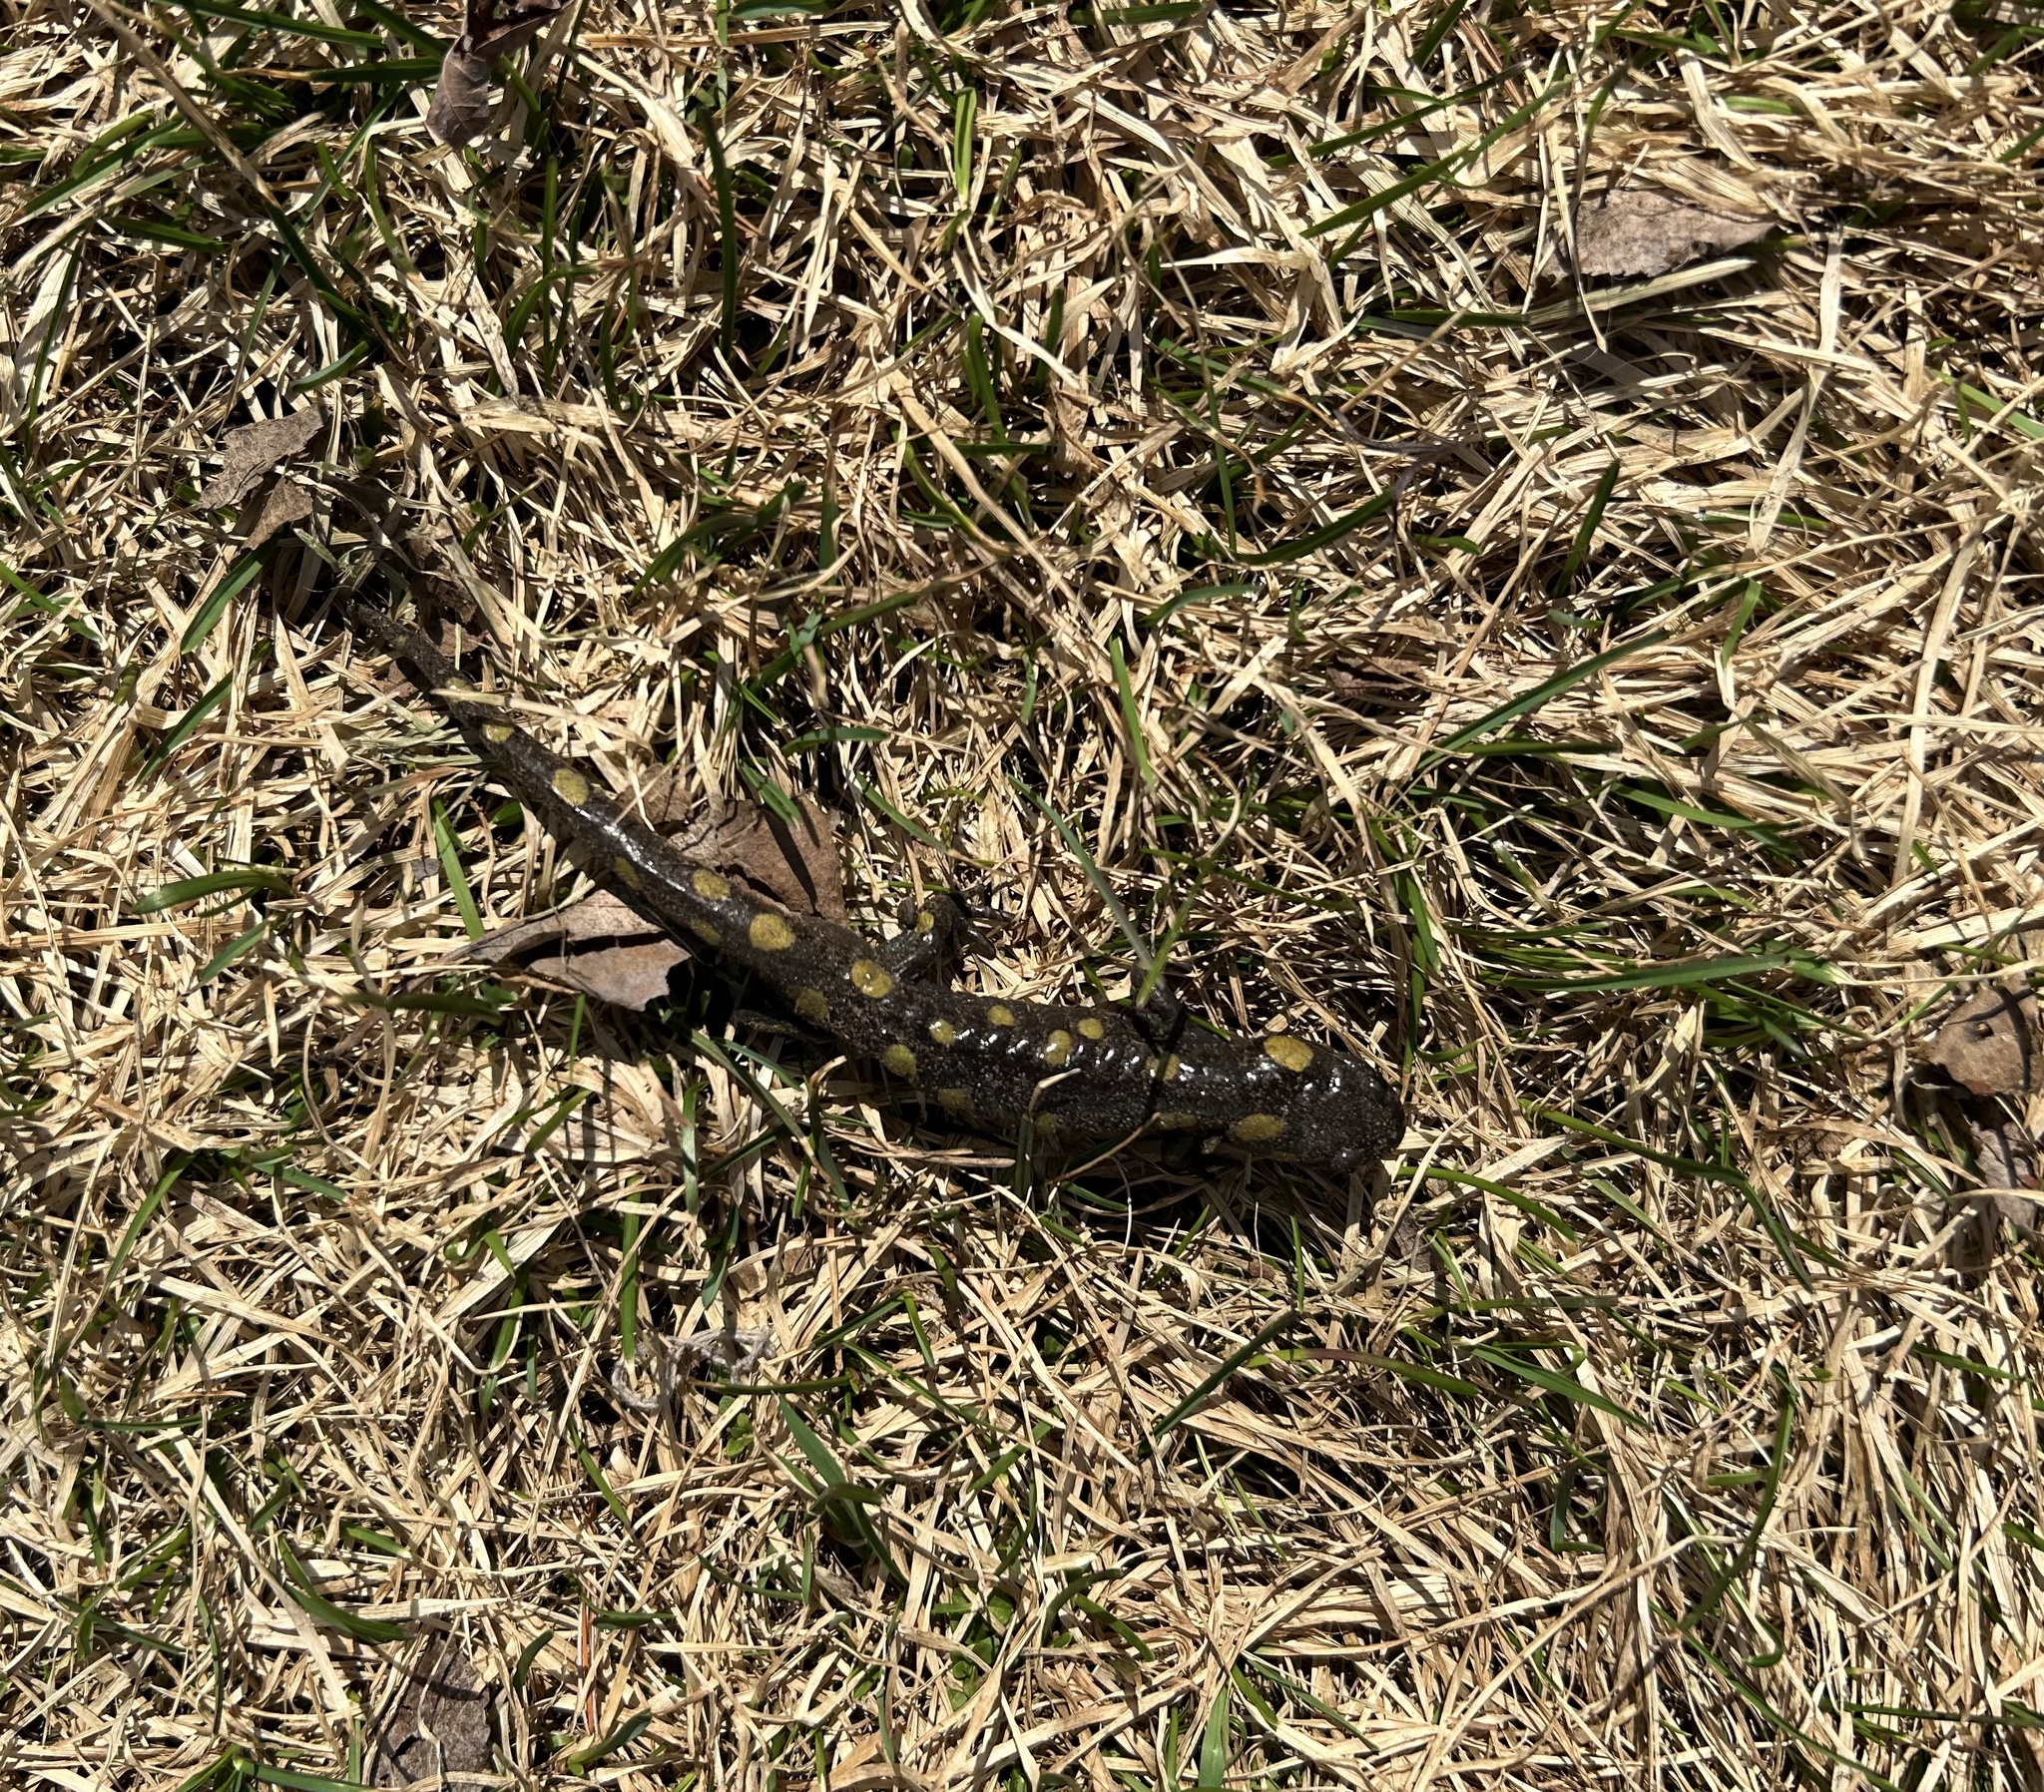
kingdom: Animalia
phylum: Chordata
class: Amphibia
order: Caudata
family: Ambystomatidae
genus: Ambystoma
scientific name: Ambystoma maculatum
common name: Spotted salamander
